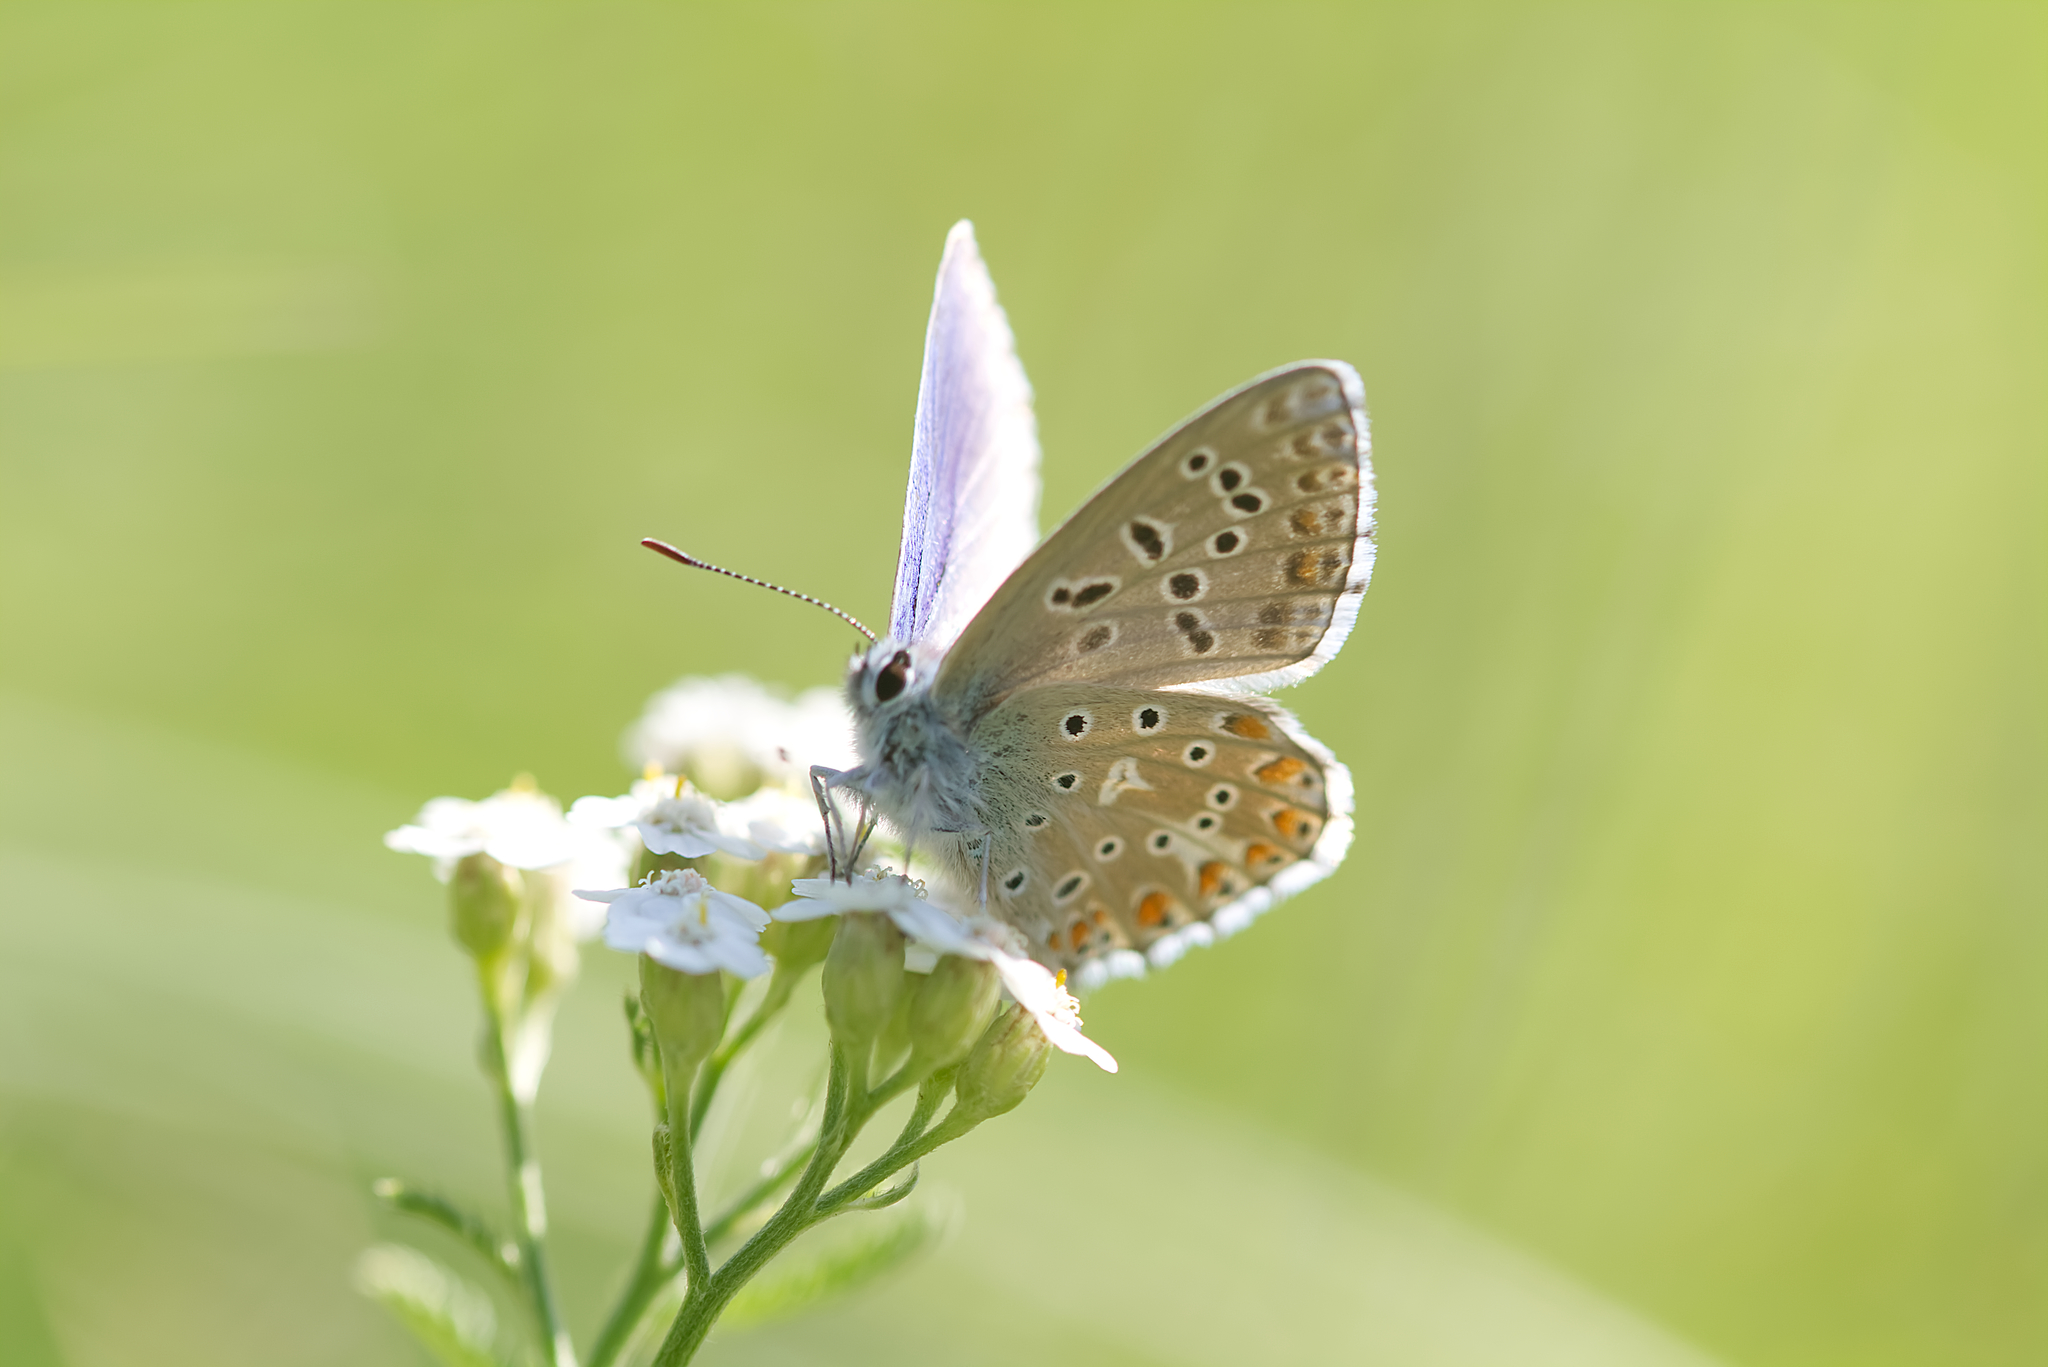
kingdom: Animalia
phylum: Arthropoda
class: Insecta
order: Lepidoptera
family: Lycaenidae
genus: Lysandra
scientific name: Lysandra bellargus
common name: Adonis blue
